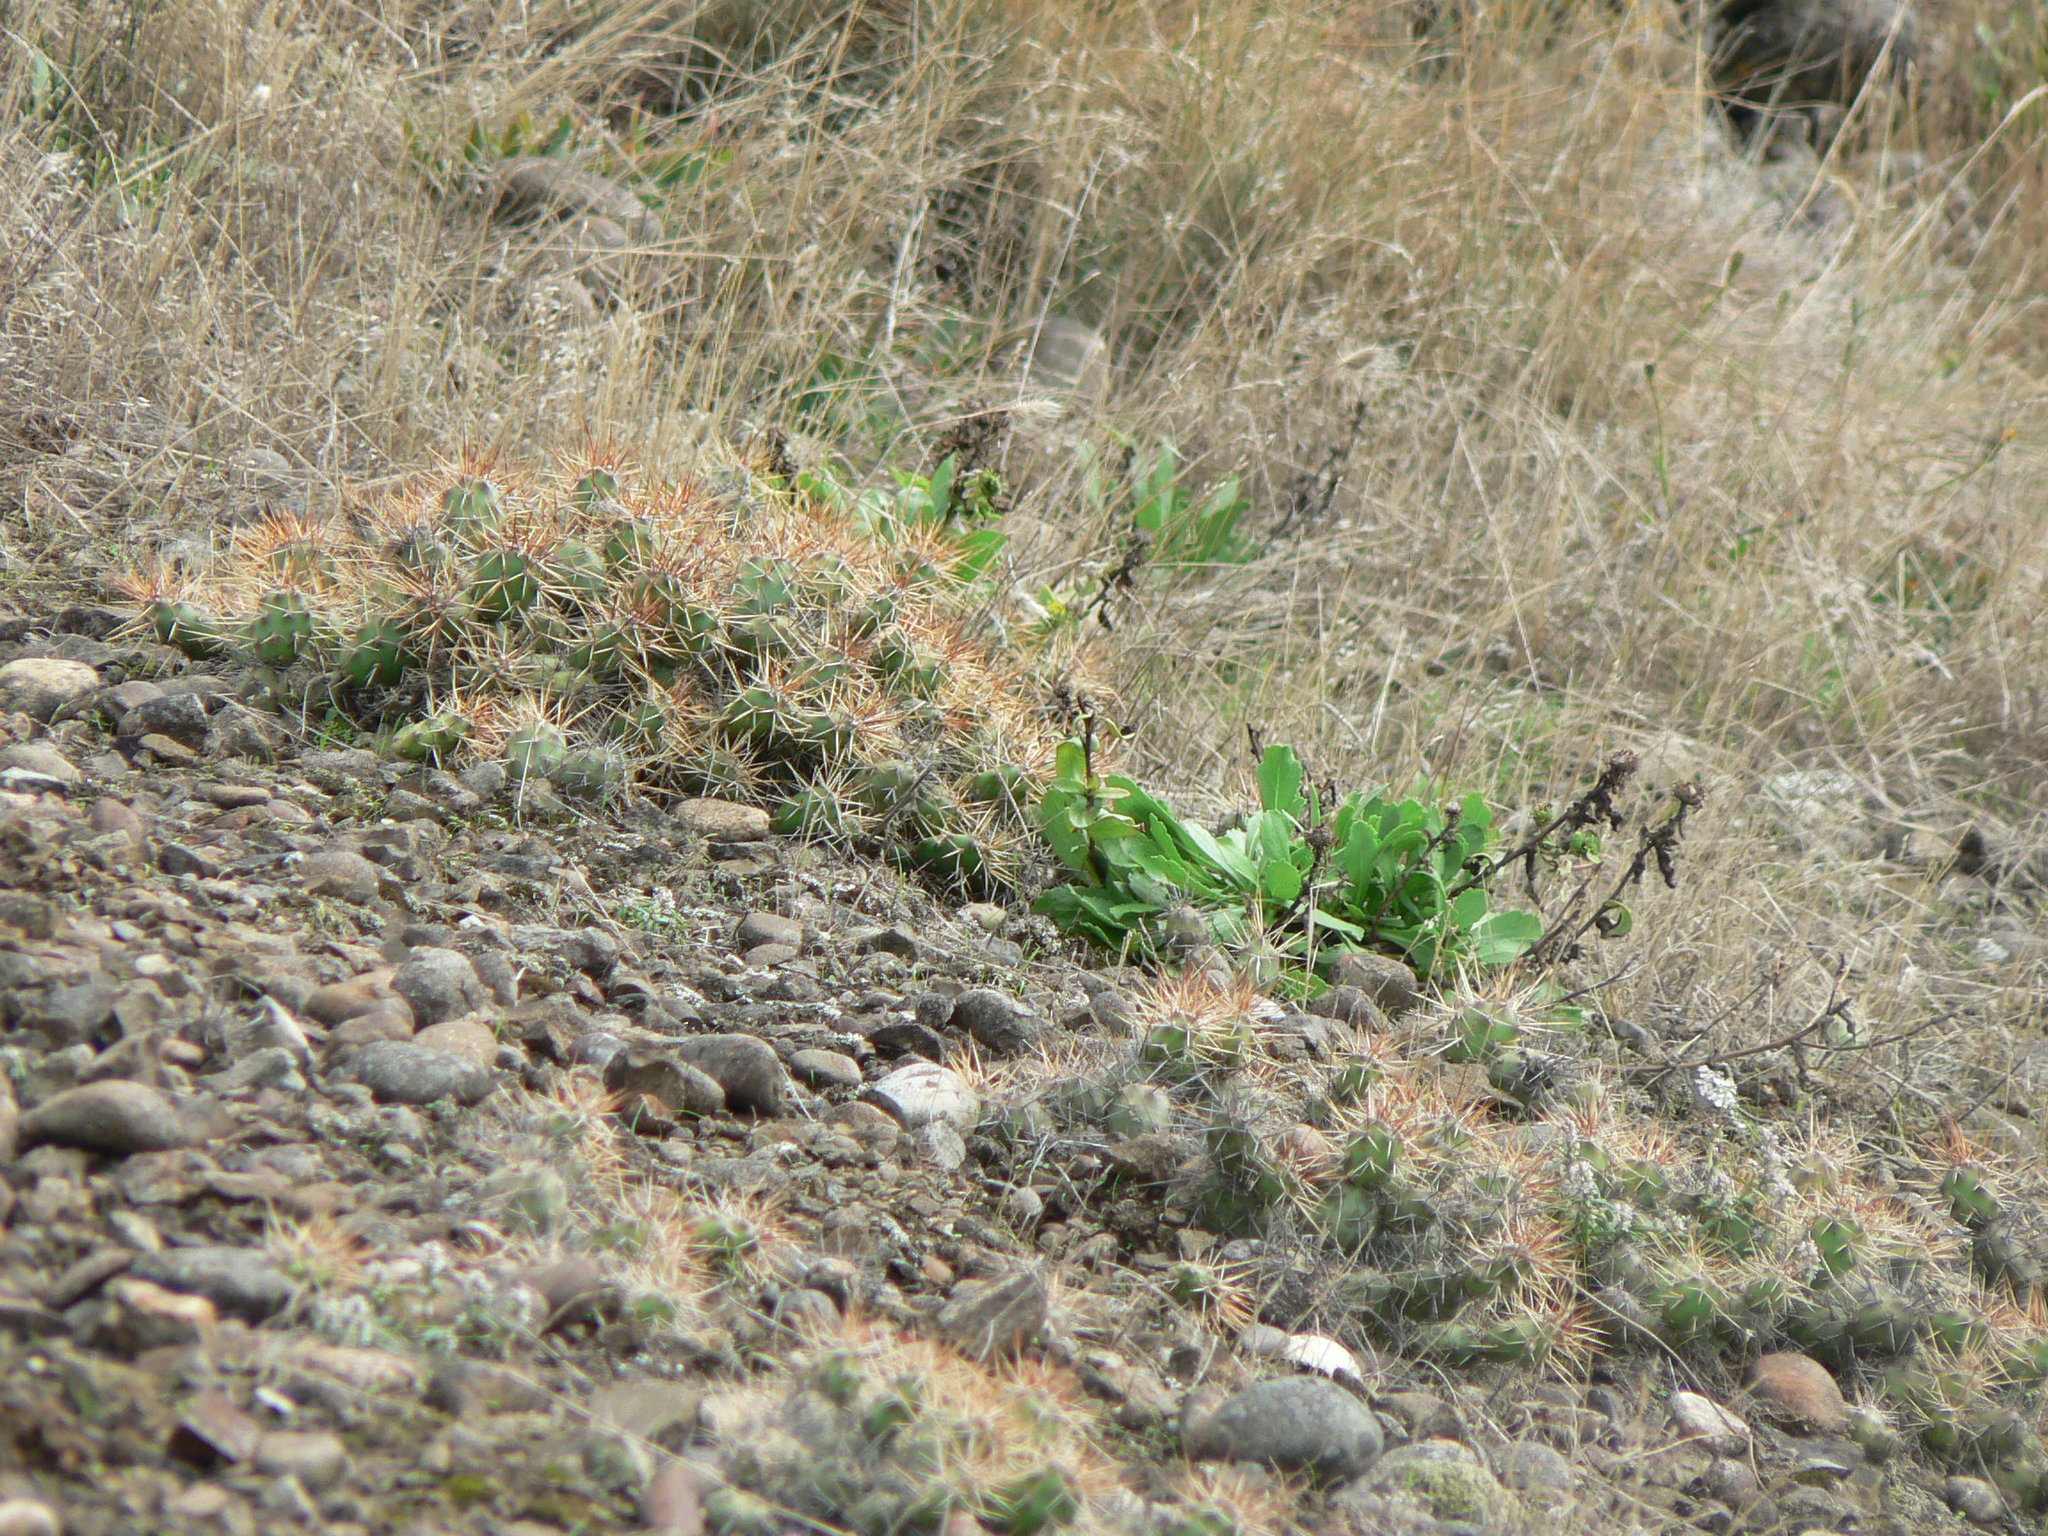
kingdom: Plantae
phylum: Tracheophyta
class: Magnoliopsida
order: Caryophyllales
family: Cactaceae
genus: Opuntia
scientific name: Opuntia fragilis
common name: Brittle cactus
